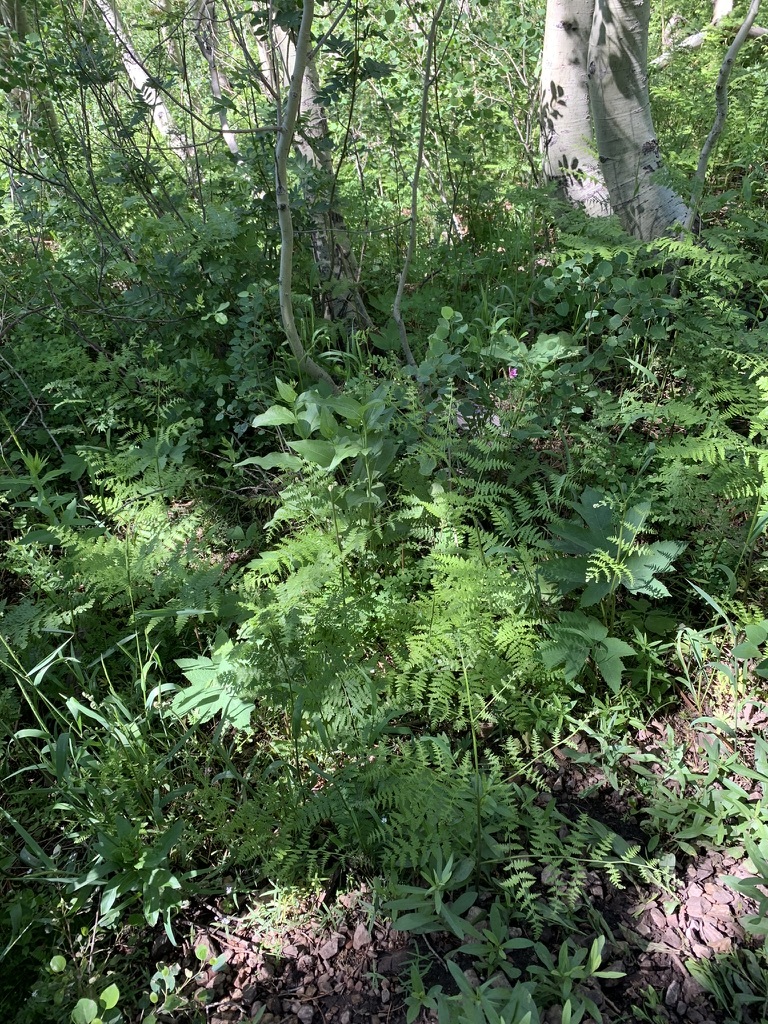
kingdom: Plantae
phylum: Tracheophyta
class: Polypodiopsida
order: Polypodiales
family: Dennstaedtiaceae
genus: Pteridium
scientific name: Pteridium aquilinum
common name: Bracken
